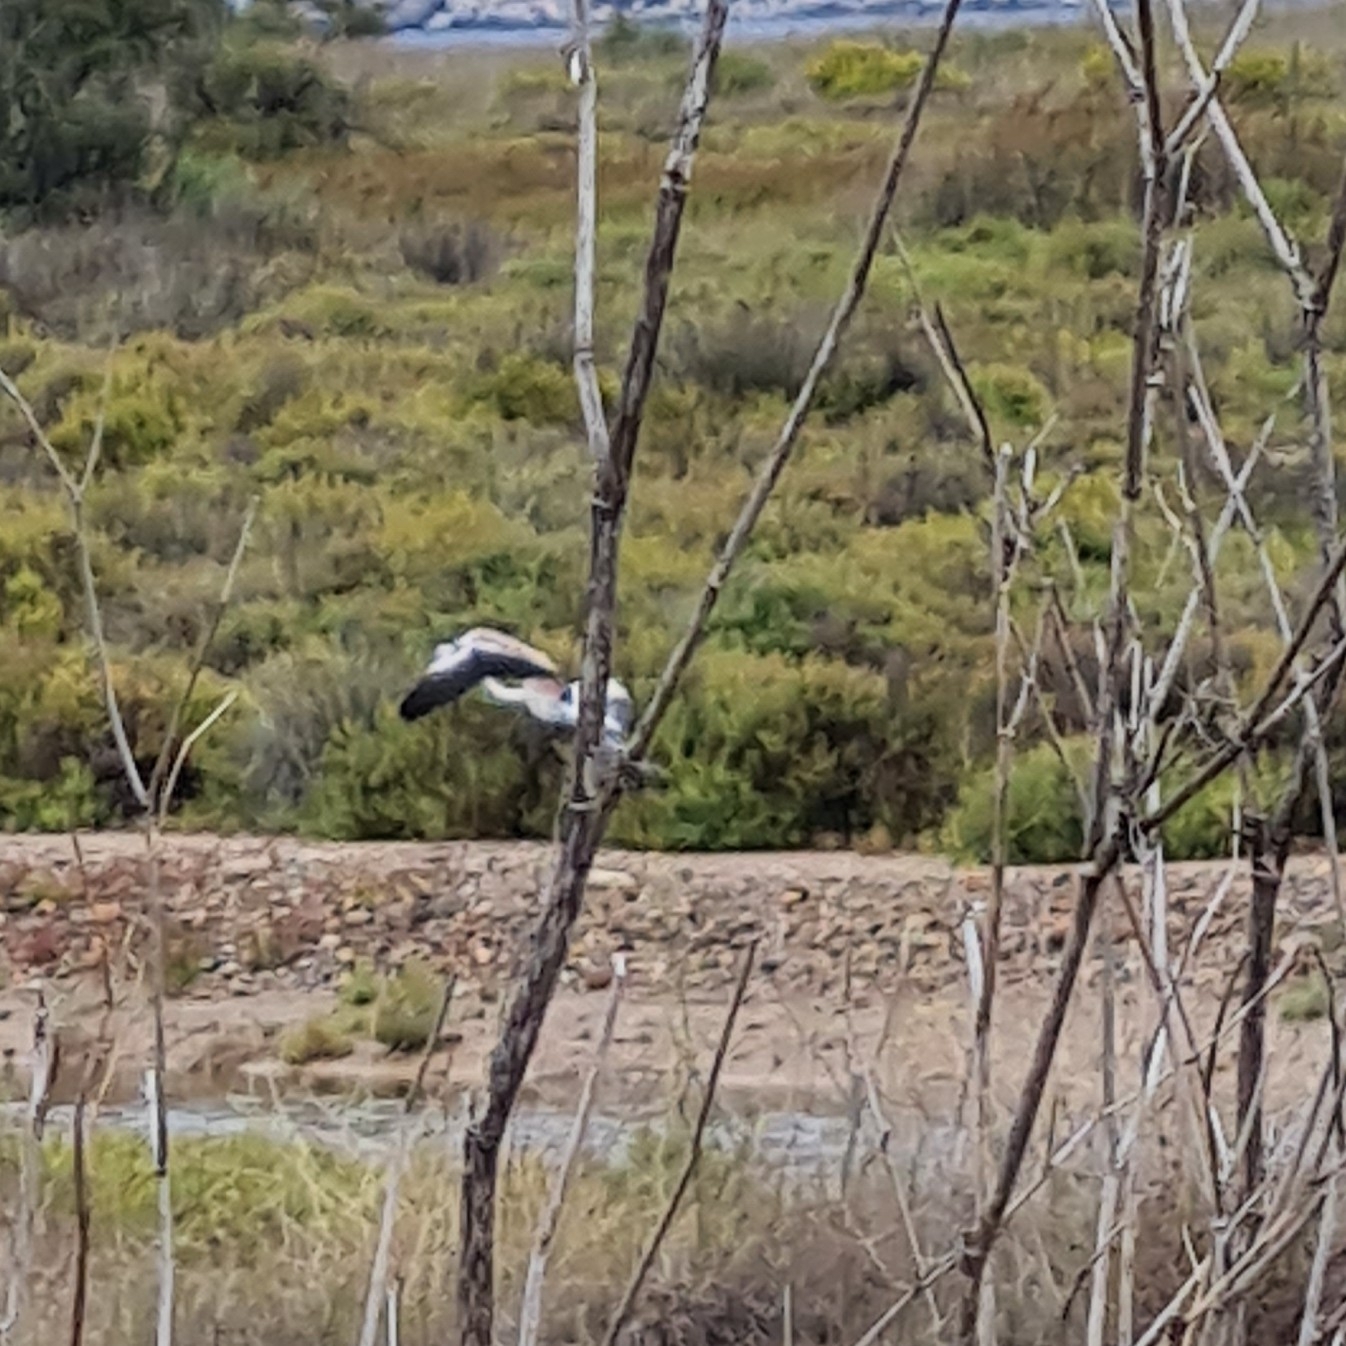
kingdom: Animalia
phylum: Chordata
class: Aves
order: Phoenicopteriformes
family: Phoenicopteridae
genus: Phoenicopterus
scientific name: Phoenicopterus roseus
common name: Greater flamingo
